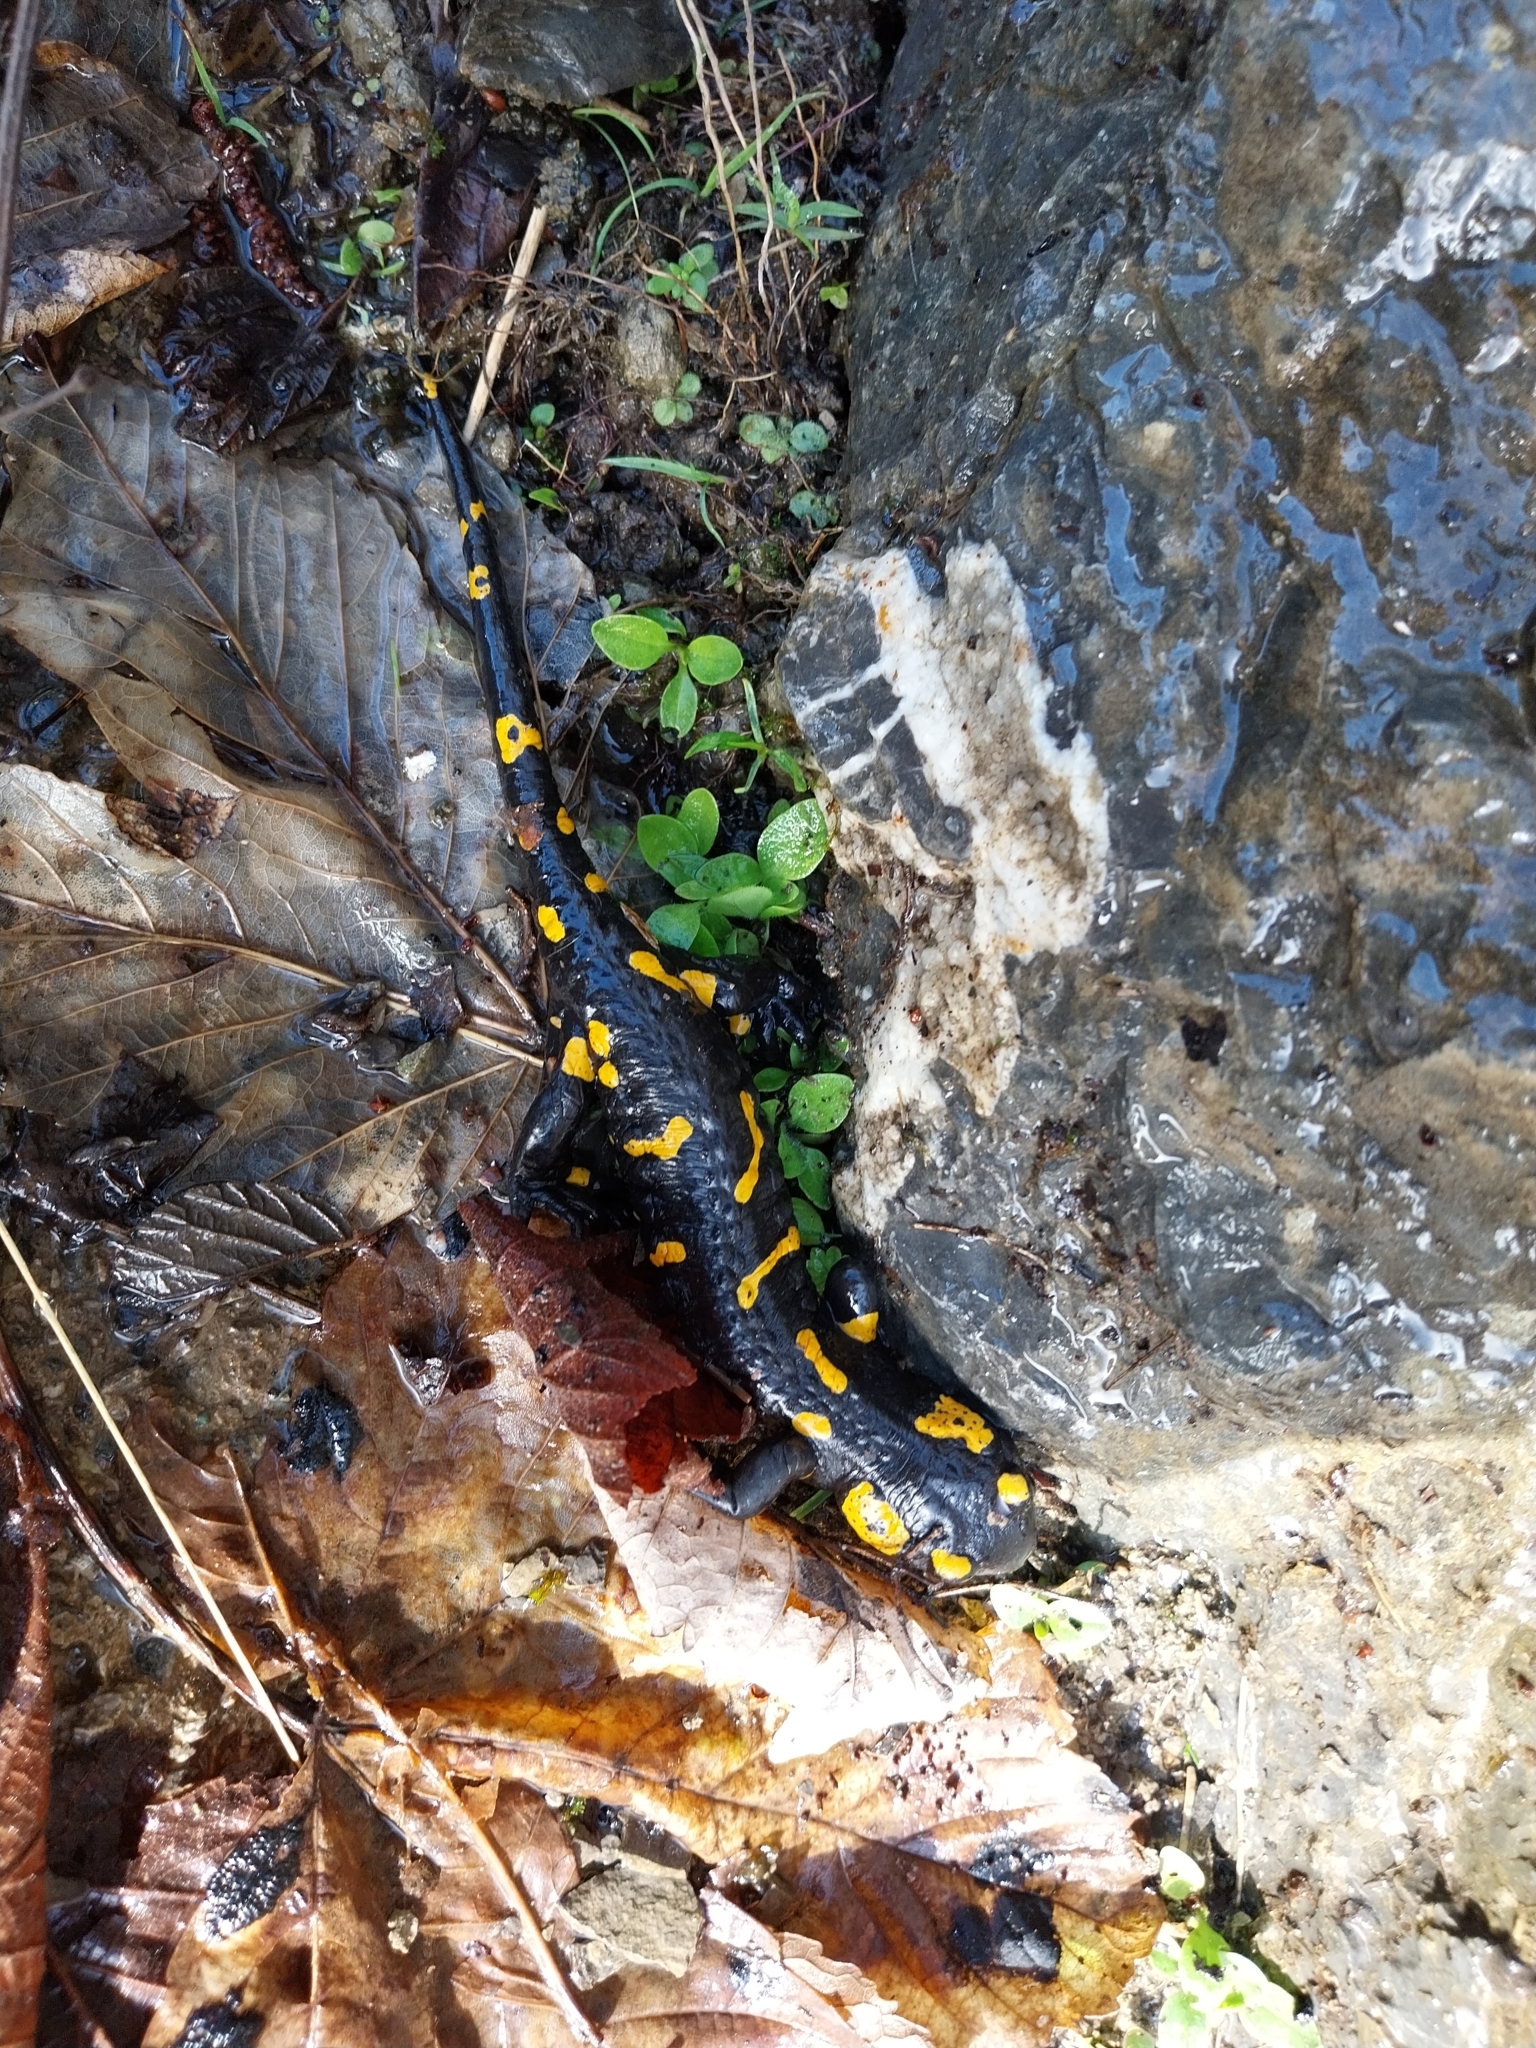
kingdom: Animalia
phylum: Chordata
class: Amphibia
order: Caudata
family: Salamandridae
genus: Salamandra
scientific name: Salamandra salamandra
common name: Fire salamander
